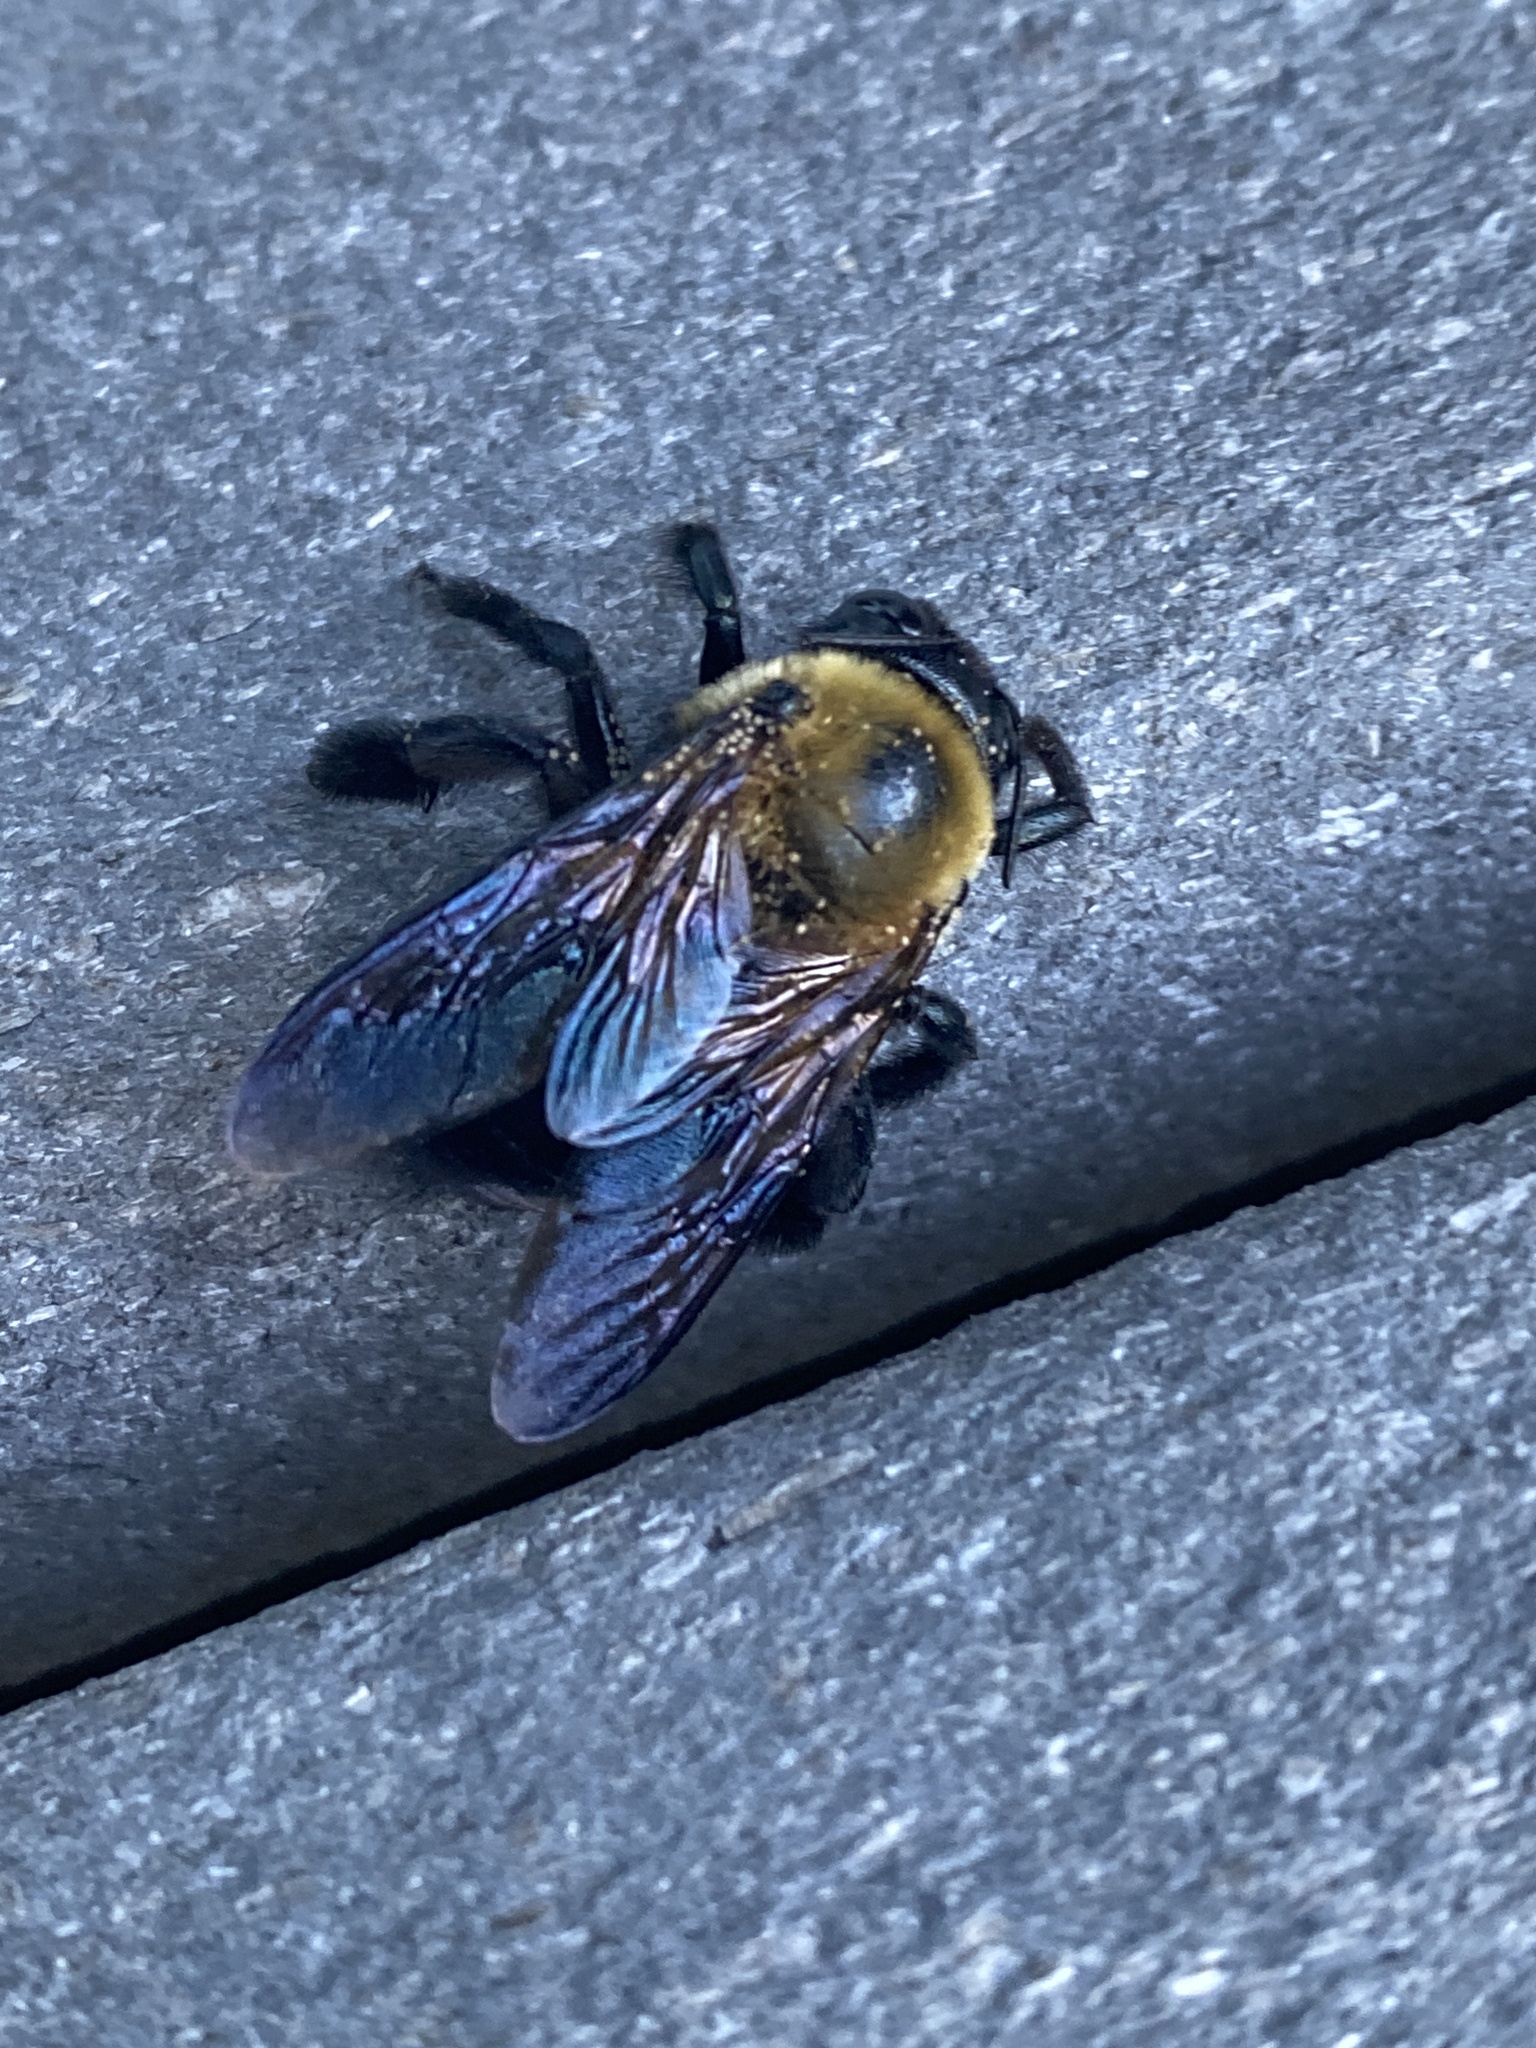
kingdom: Animalia
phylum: Arthropoda
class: Insecta
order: Hymenoptera
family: Apidae
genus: Xylocopa
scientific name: Xylocopa virginica
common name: Carpenter bee
